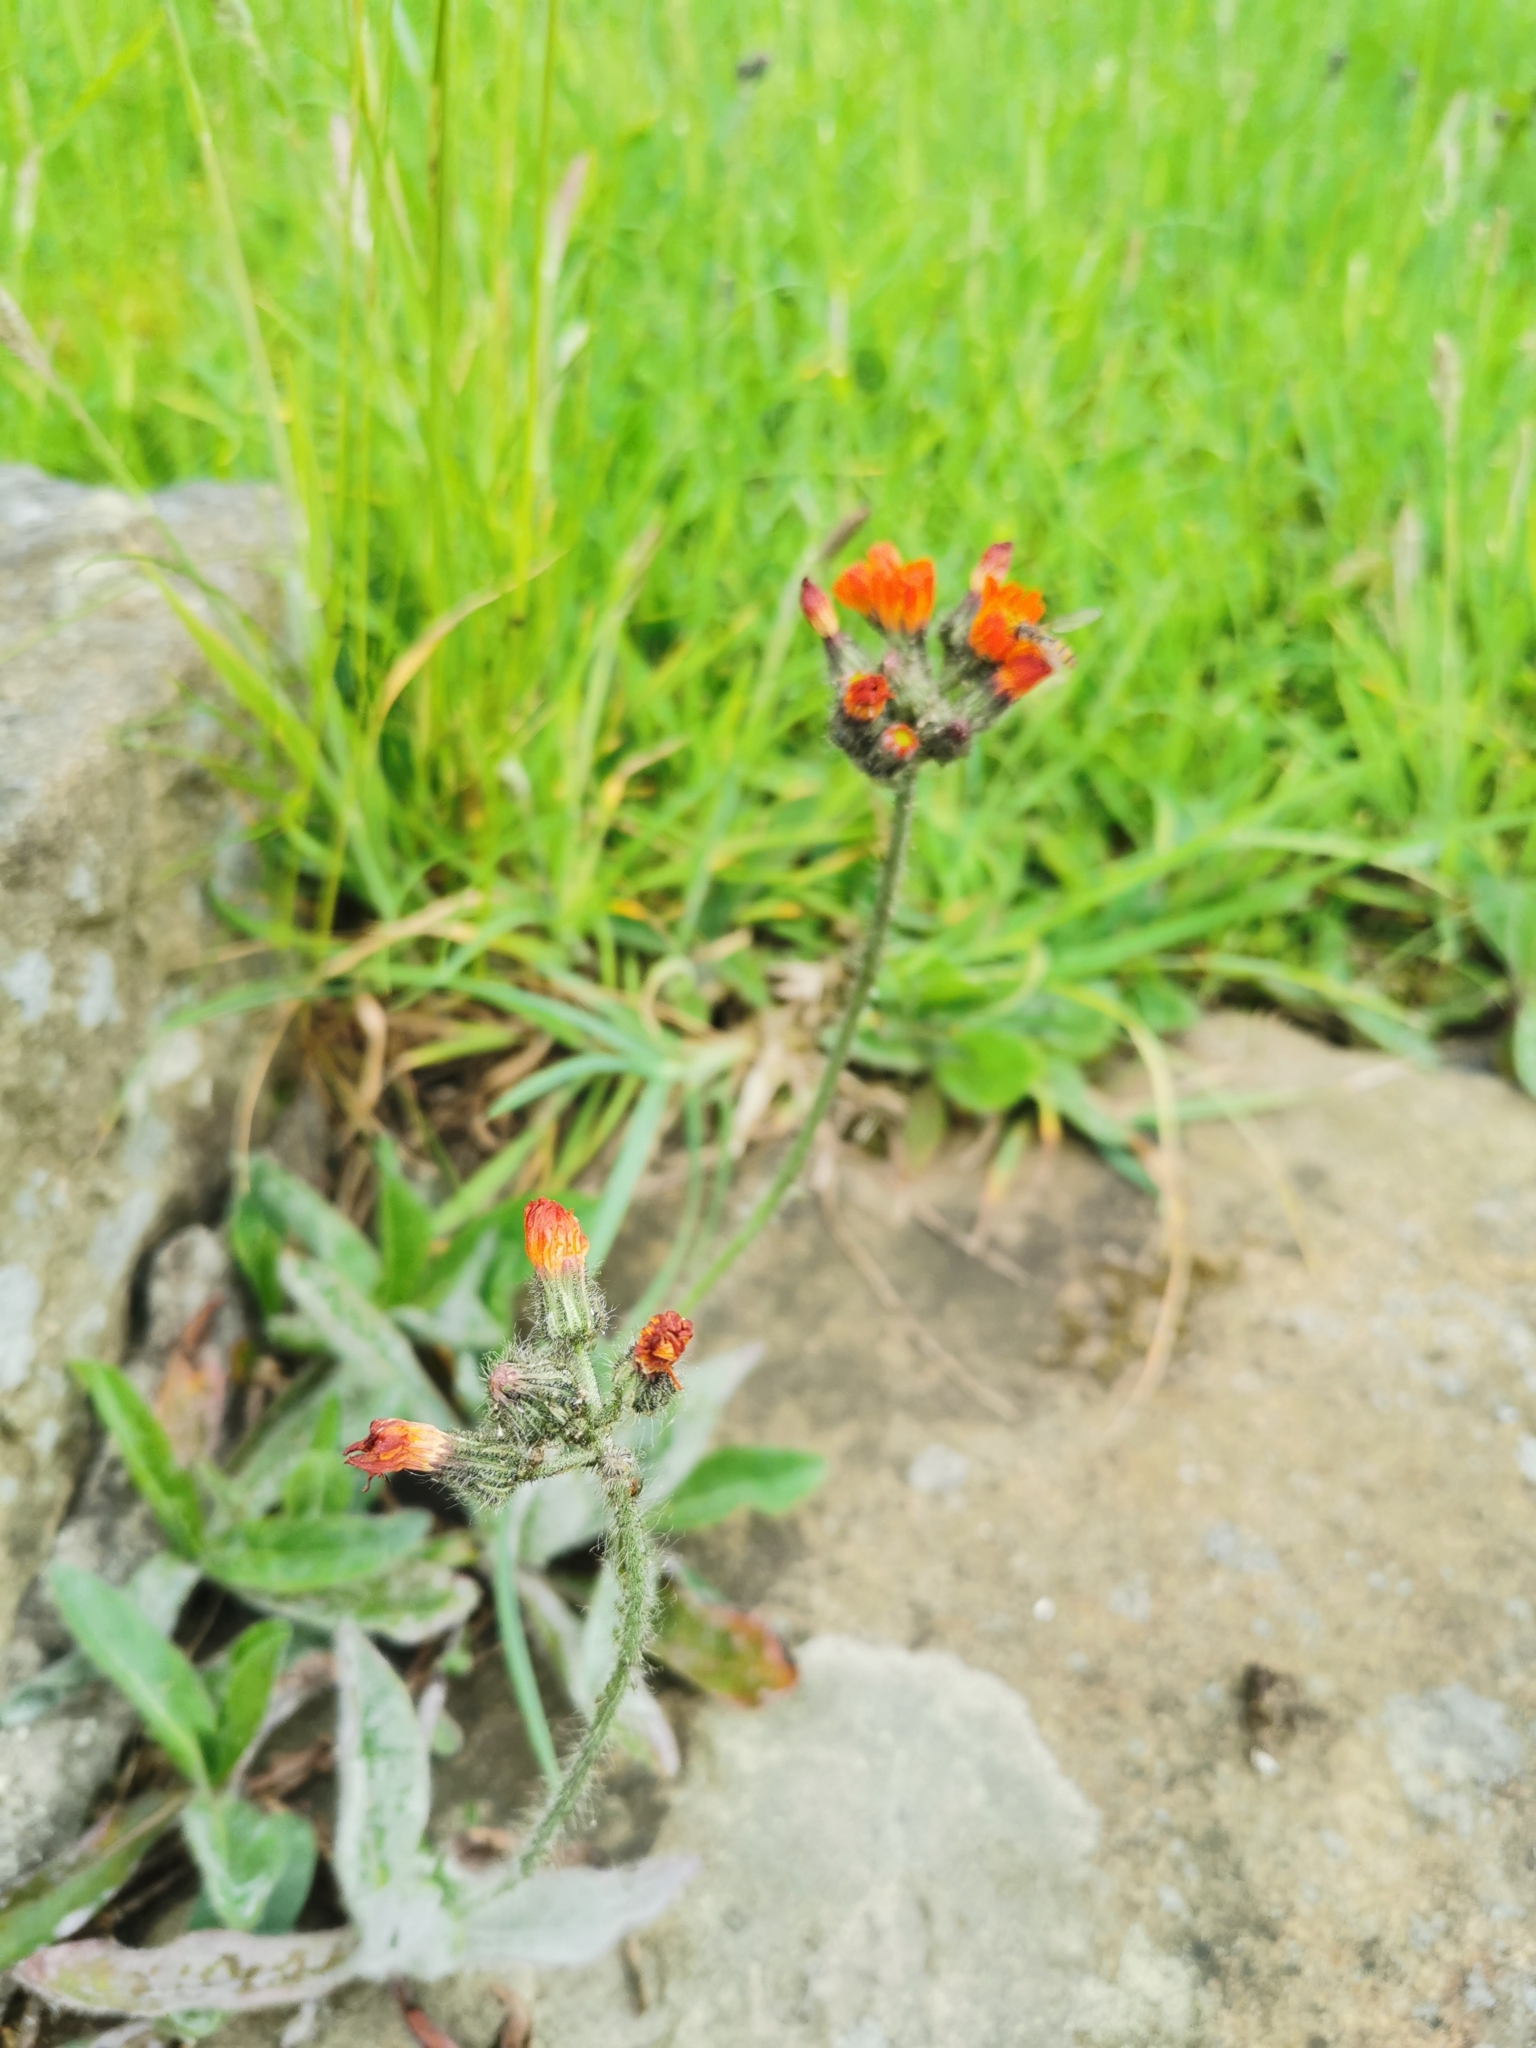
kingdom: Plantae
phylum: Tracheophyta
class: Magnoliopsida
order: Asterales
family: Asteraceae
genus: Pilosella
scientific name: Pilosella aurantiaca
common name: Fox-and-cubs
